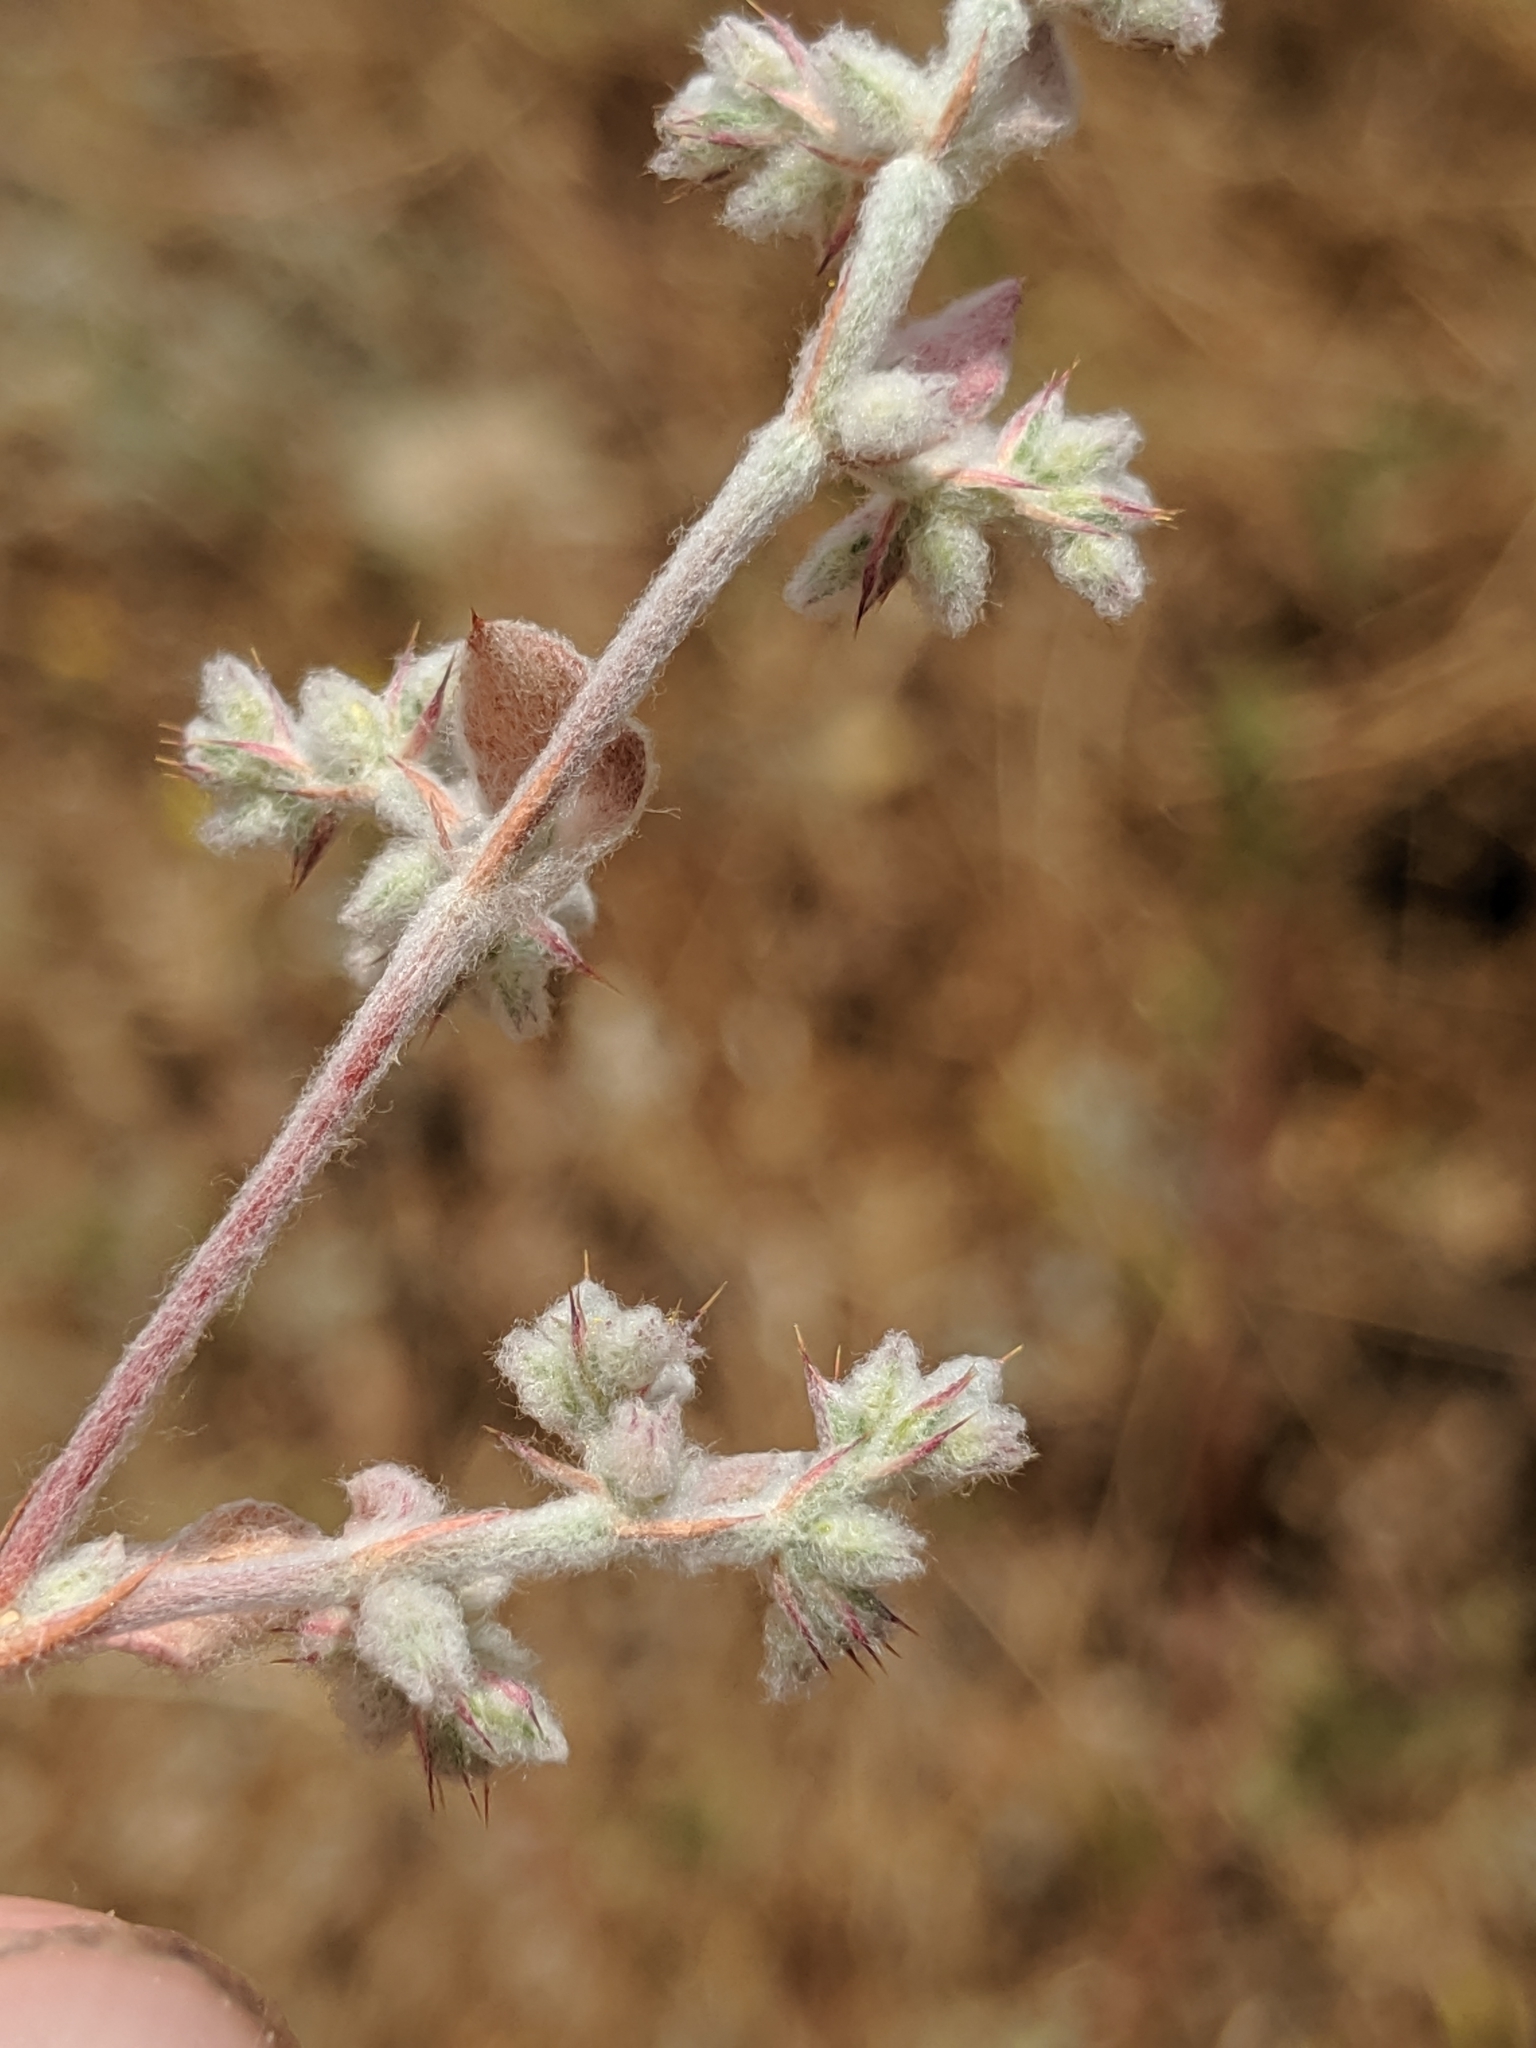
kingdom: Plantae
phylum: Tracheophyta
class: Magnoliopsida
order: Caryophyllales
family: Polygonaceae
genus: Hollisteria
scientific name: Hollisteria lanata
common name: False spike-flower
